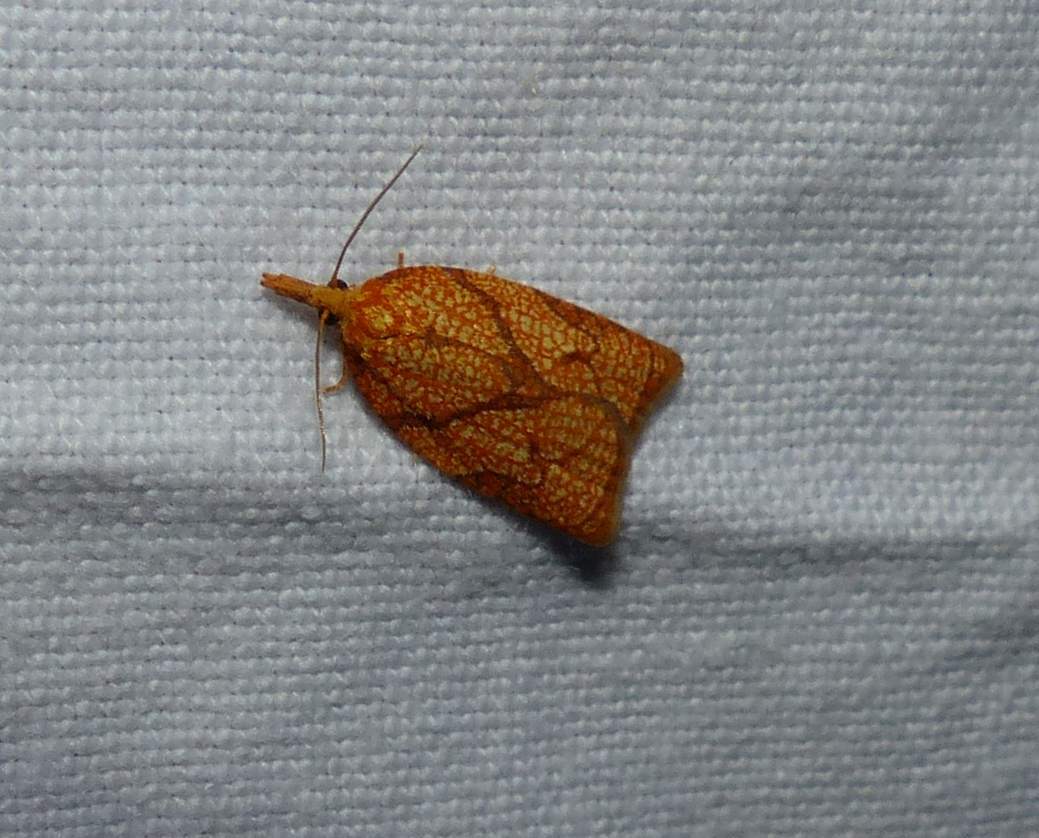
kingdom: Animalia
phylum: Arthropoda
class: Insecta
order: Lepidoptera
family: Tortricidae
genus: Cenopis
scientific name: Cenopis reticulatana
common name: Reticulated fruitworm moth
